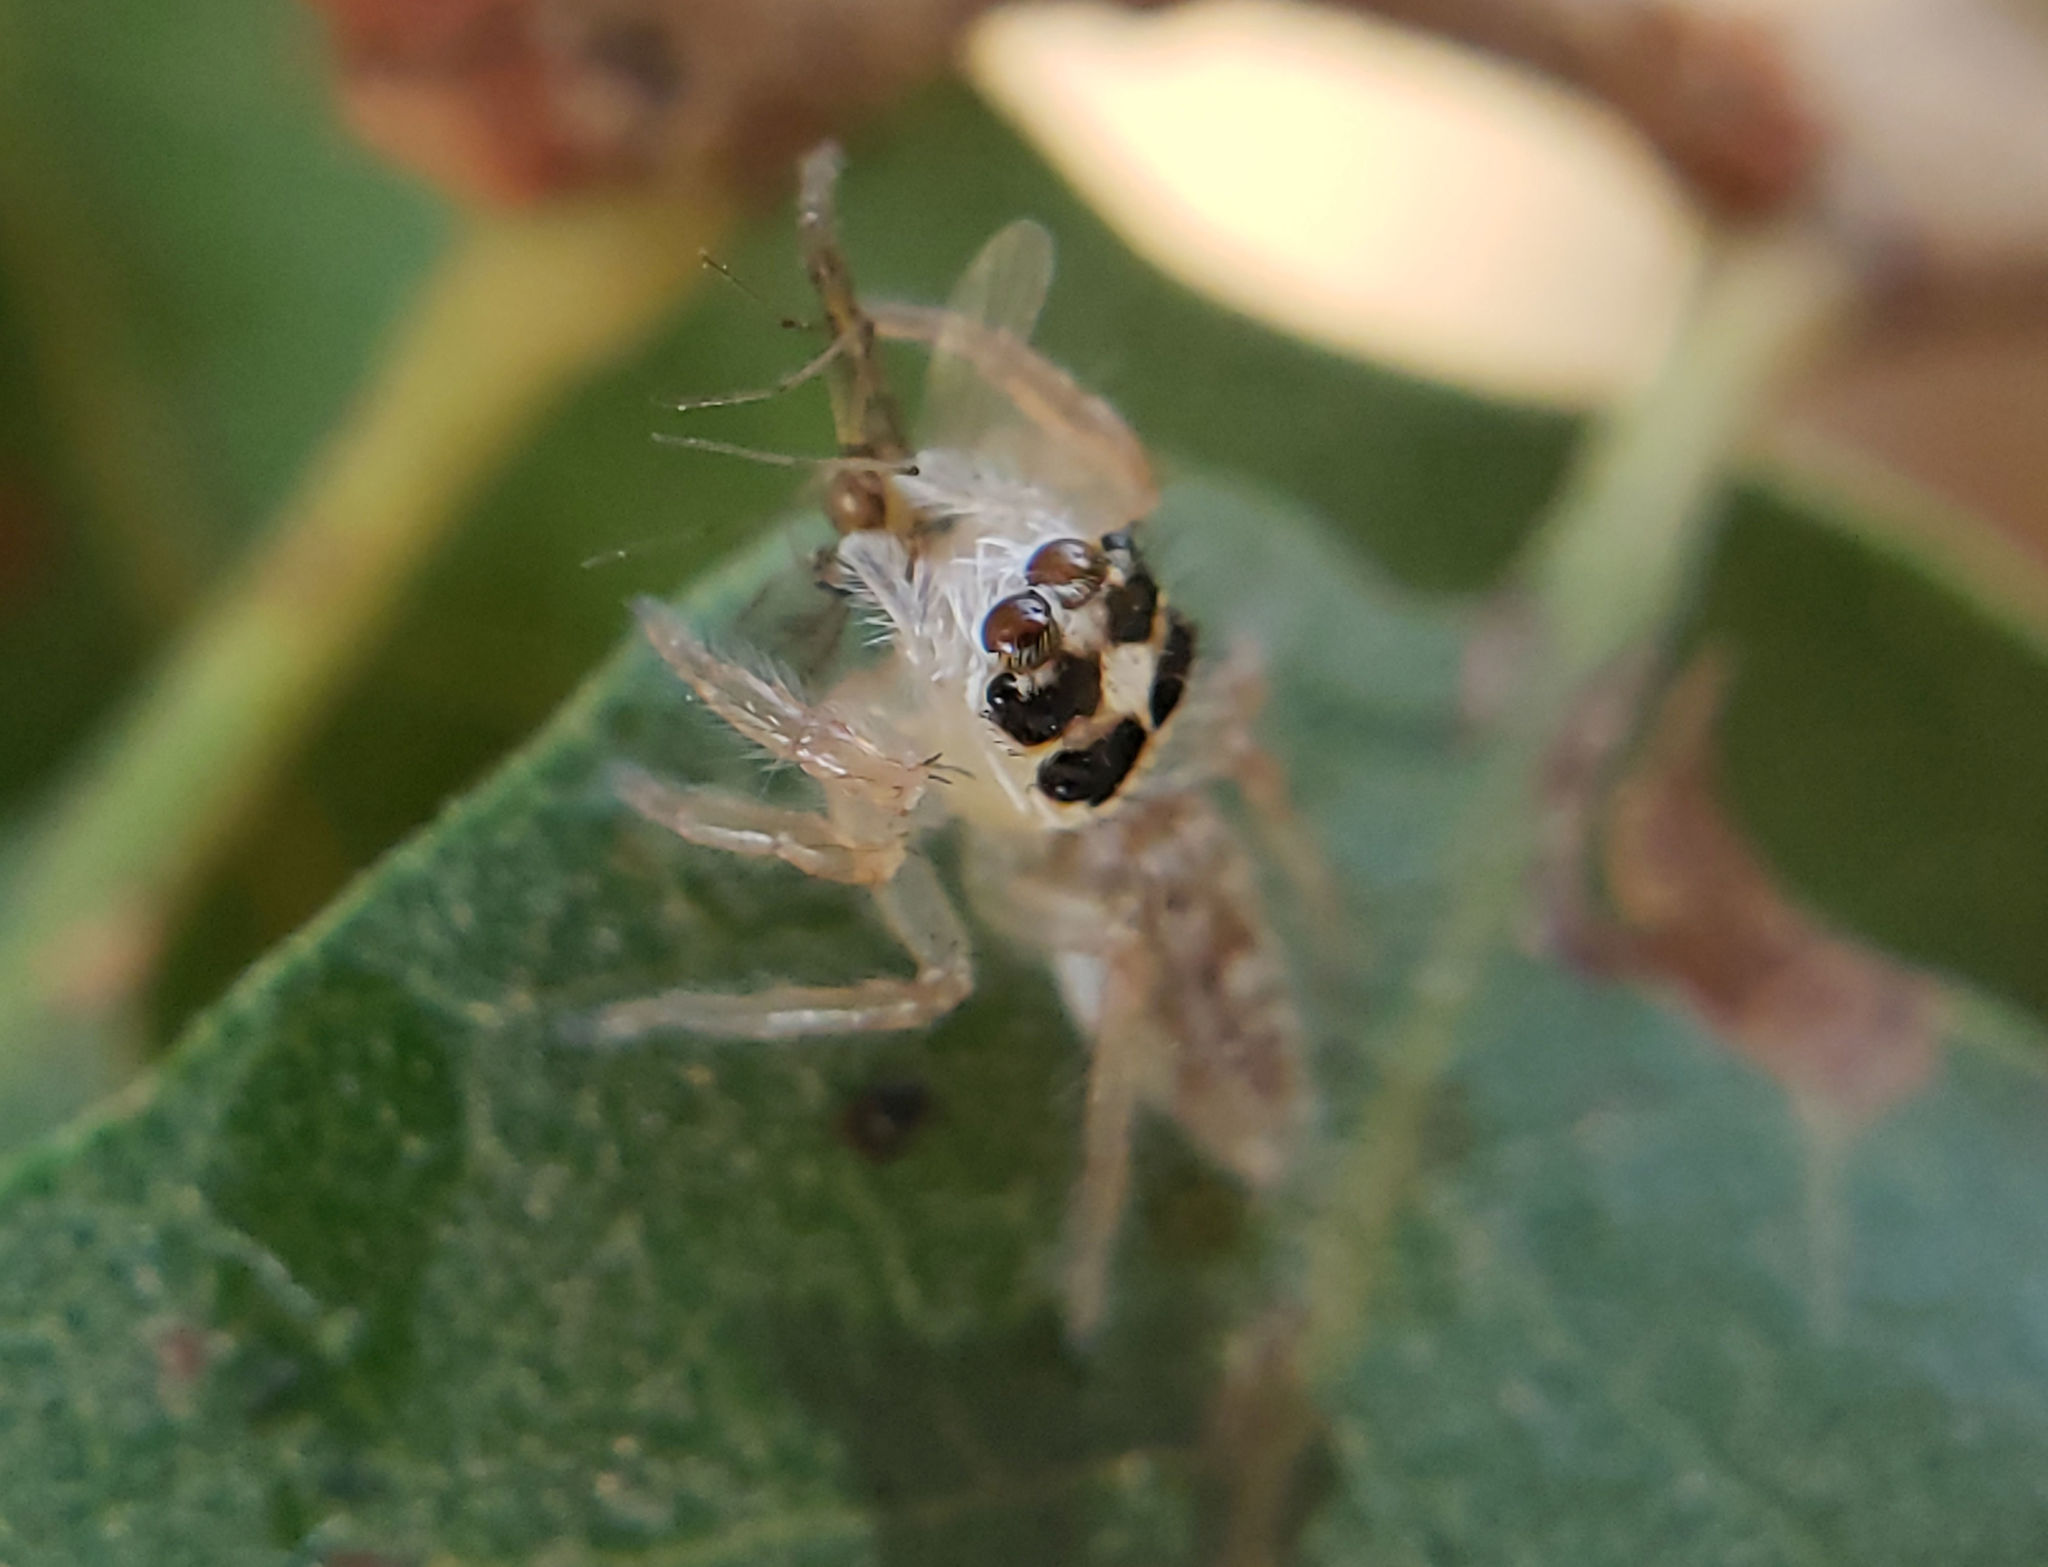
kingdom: Animalia
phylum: Arthropoda
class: Arachnida
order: Araneae
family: Salticidae
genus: Colonus
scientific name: Colonus hesperus
